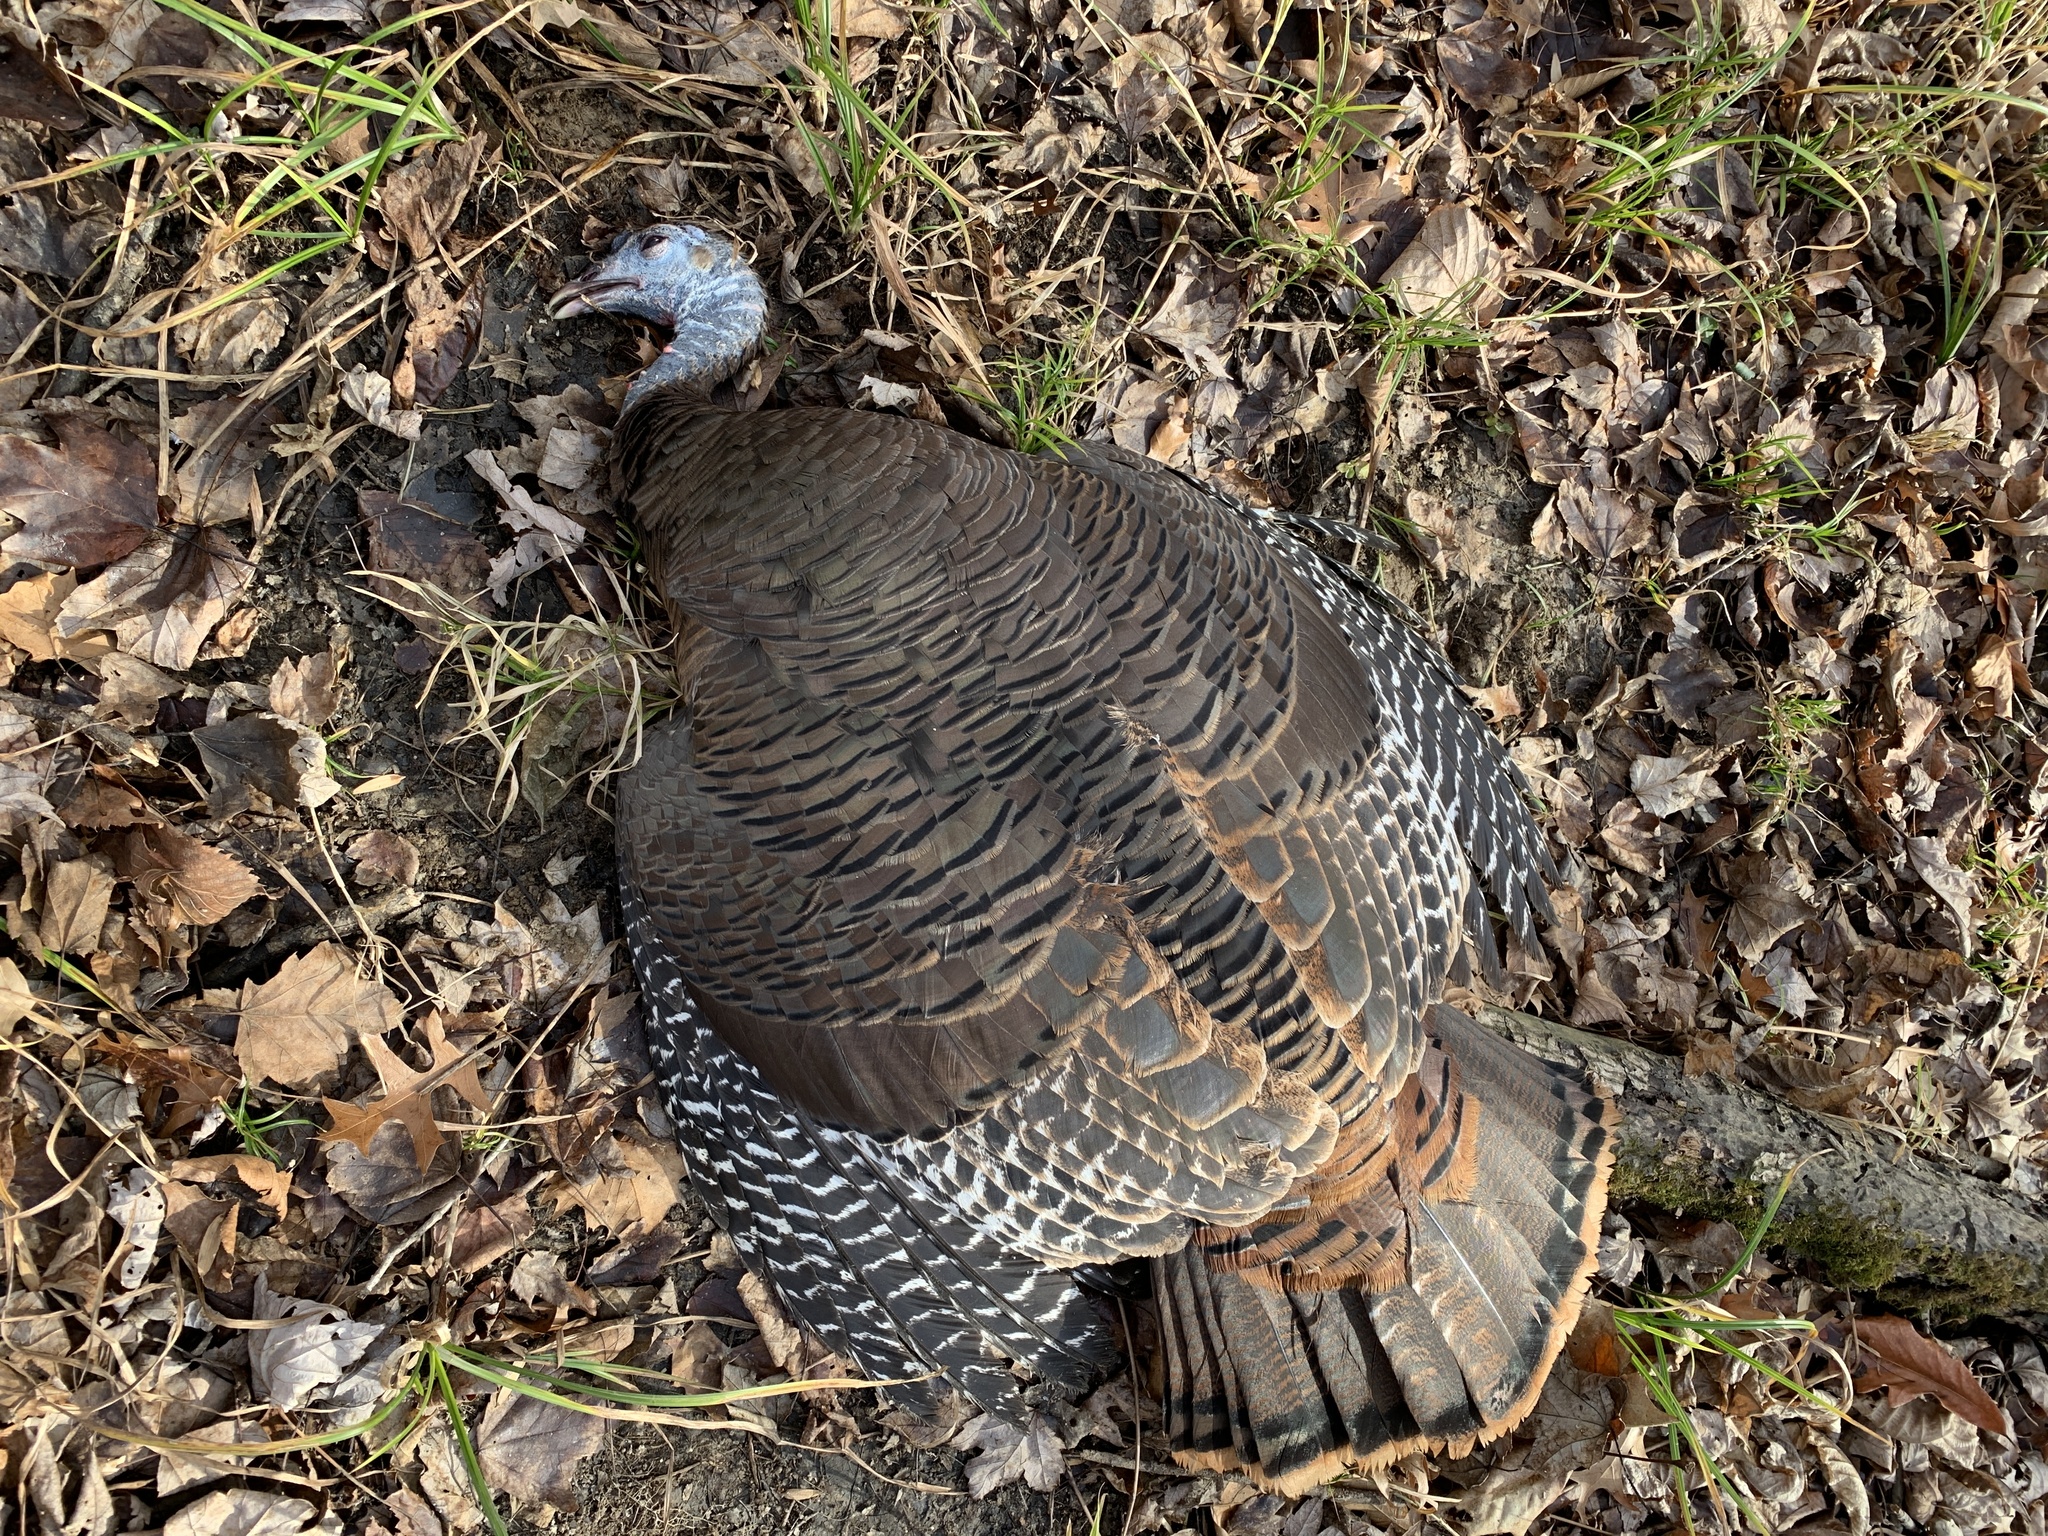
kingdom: Animalia
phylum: Chordata
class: Aves
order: Galliformes
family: Phasianidae
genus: Meleagris
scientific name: Meleagris gallopavo
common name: Wild turkey
